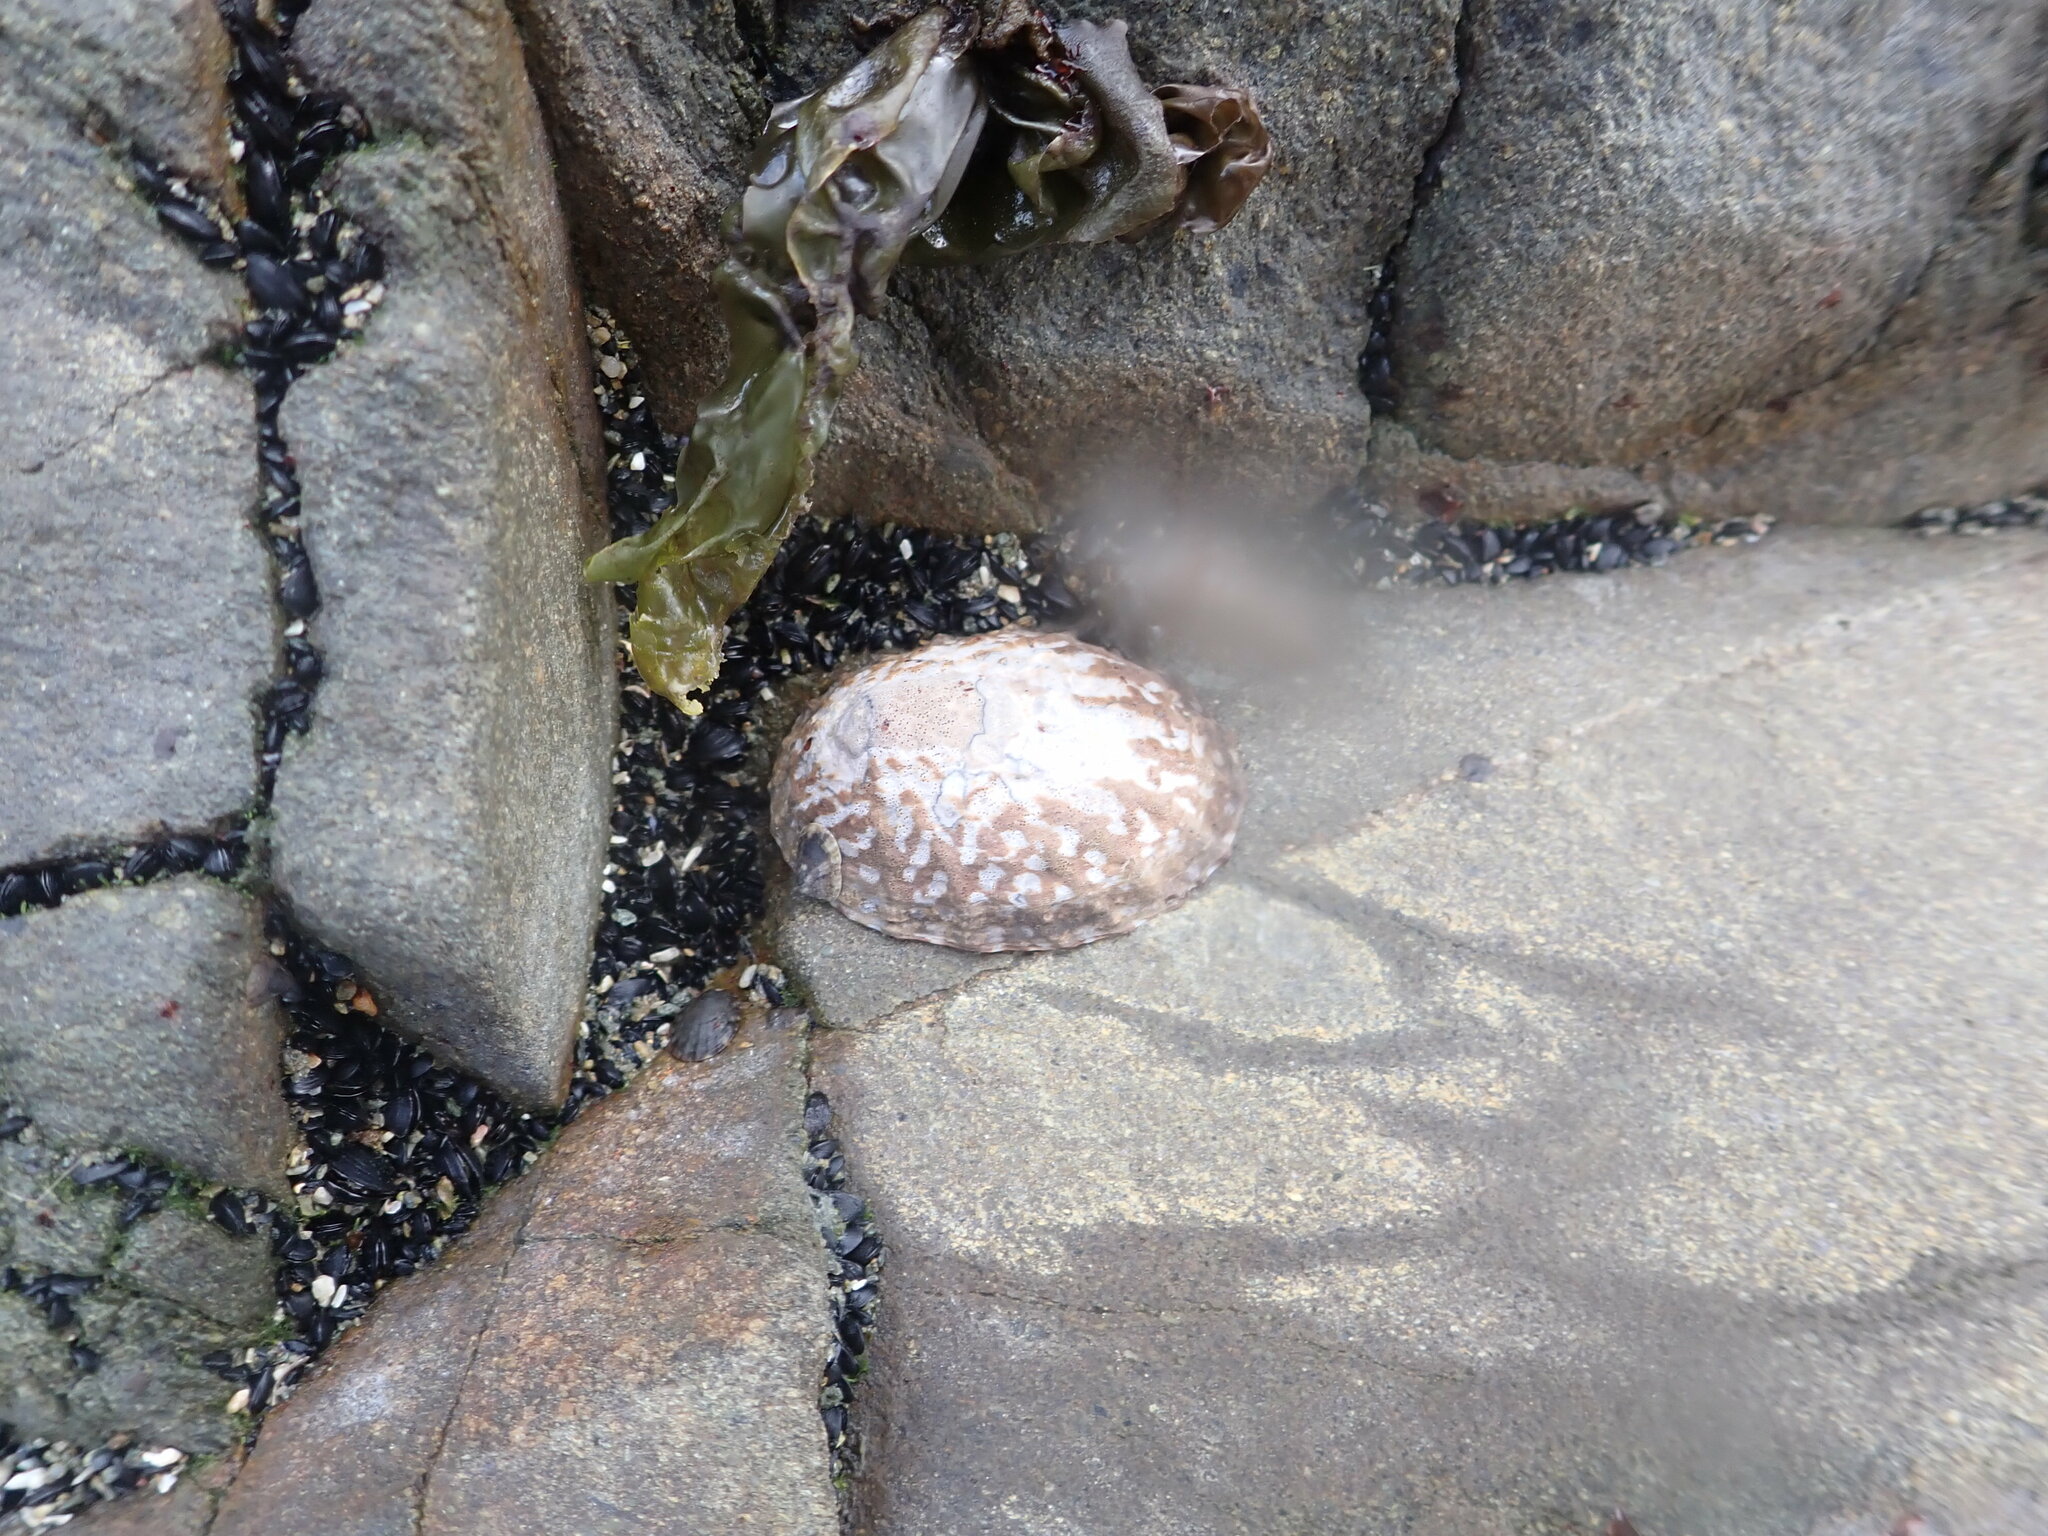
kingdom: Animalia
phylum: Mollusca
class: Gastropoda
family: Nacellidae
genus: Cellana
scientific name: Cellana denticulata
